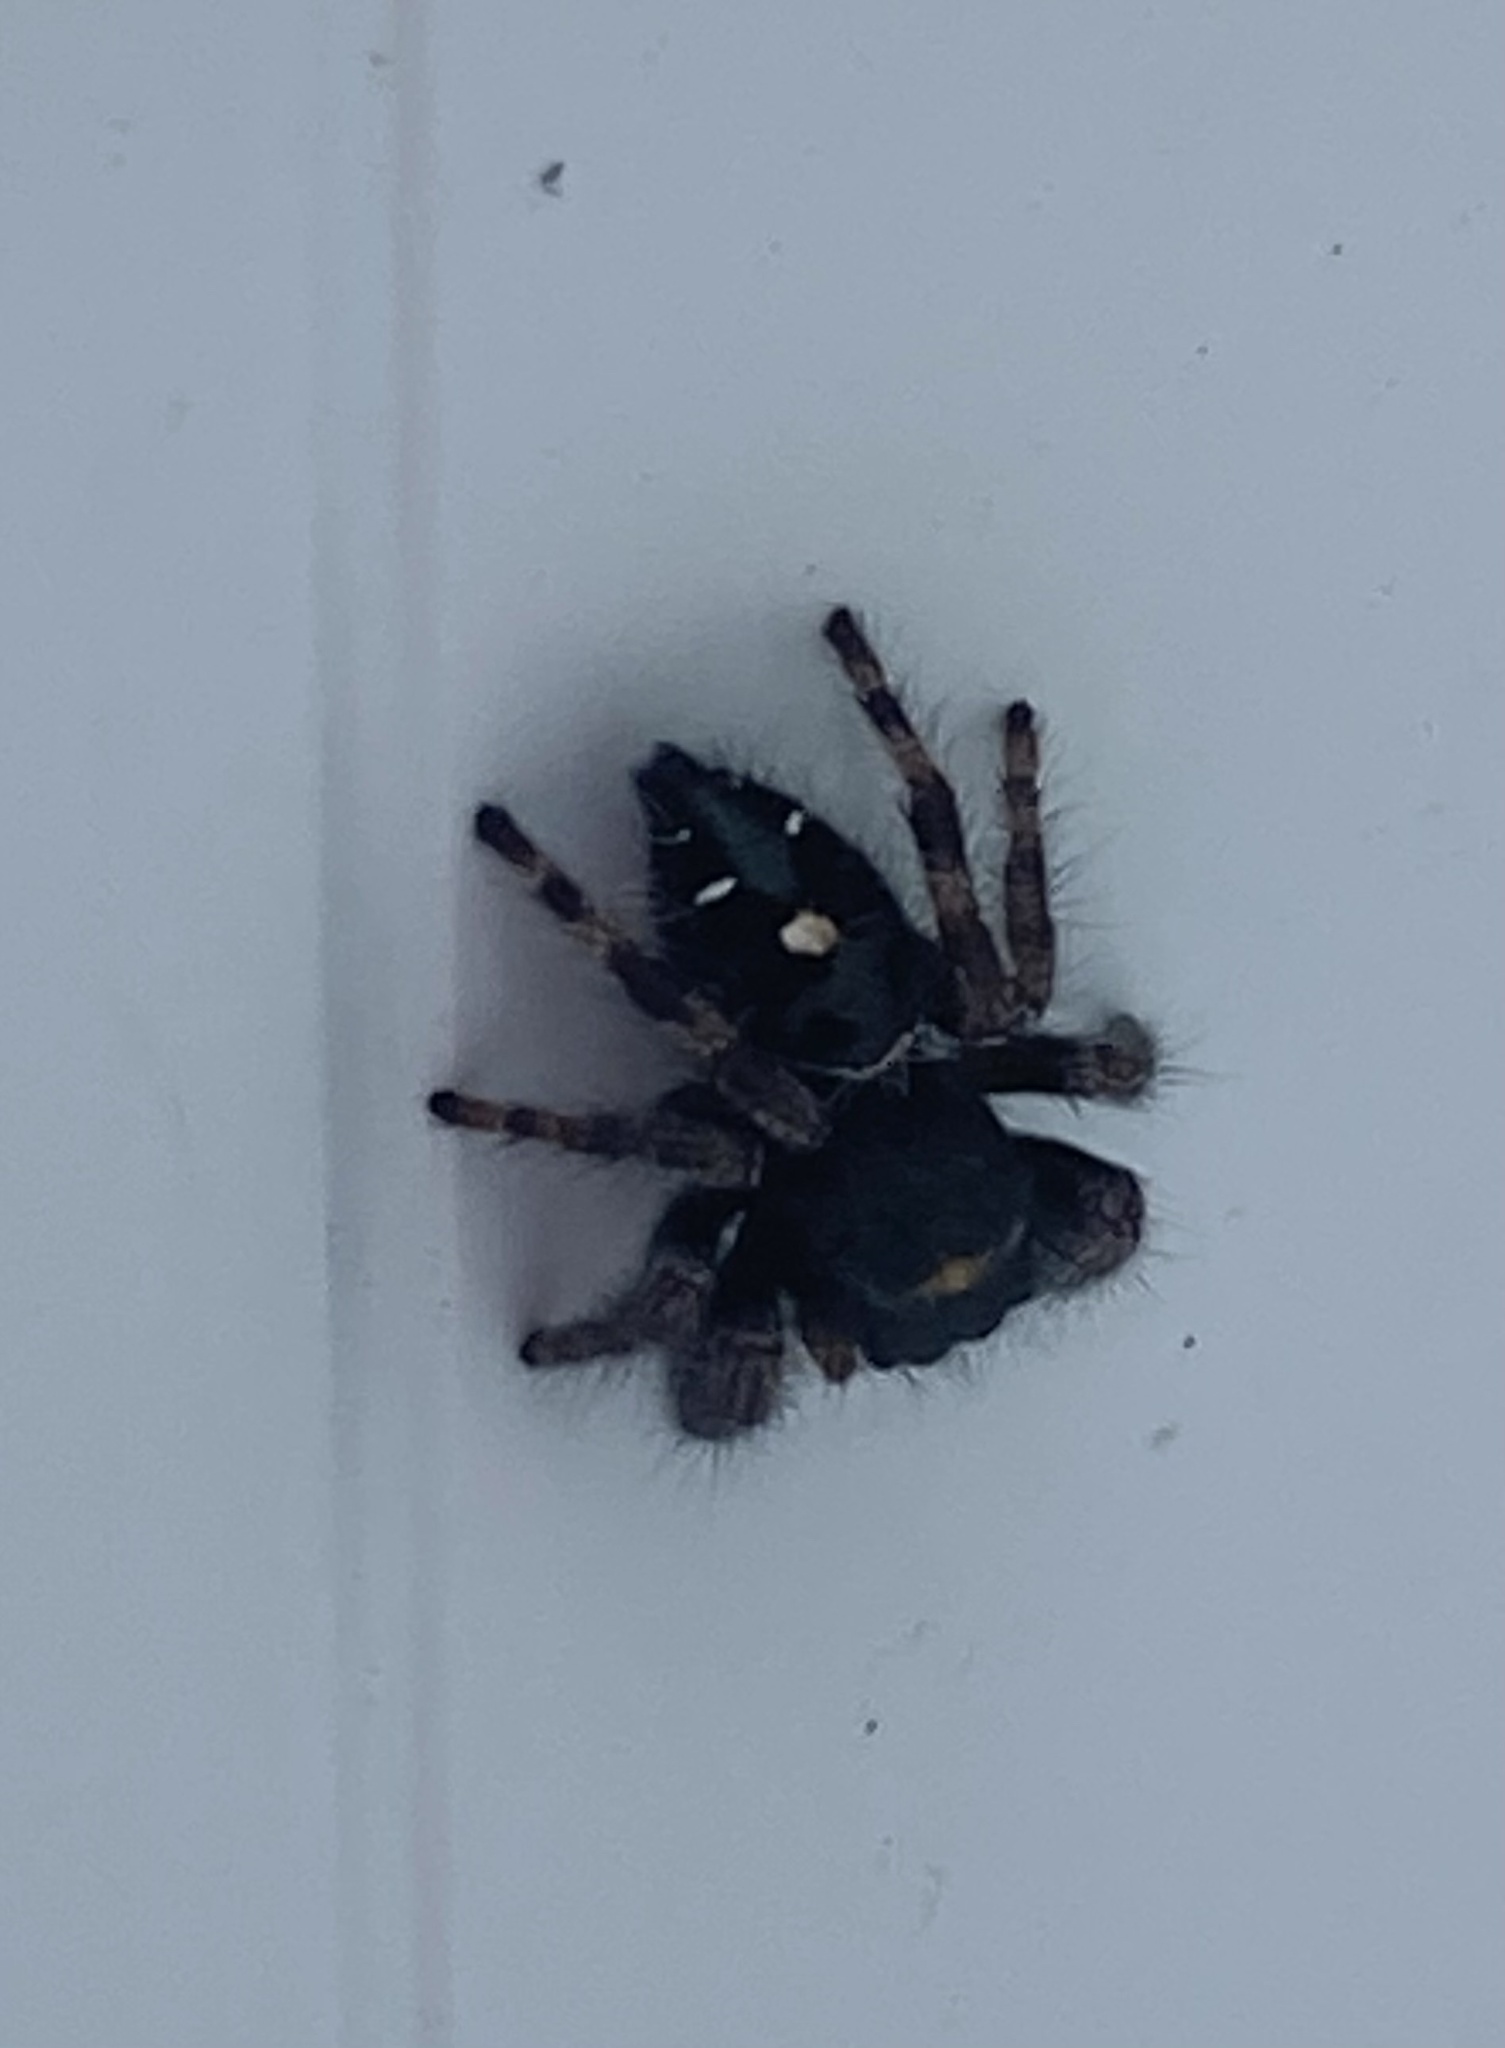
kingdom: Animalia
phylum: Arthropoda
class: Arachnida
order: Araneae
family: Salticidae
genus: Phidippus
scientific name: Phidippus audax
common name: Bold jumper
